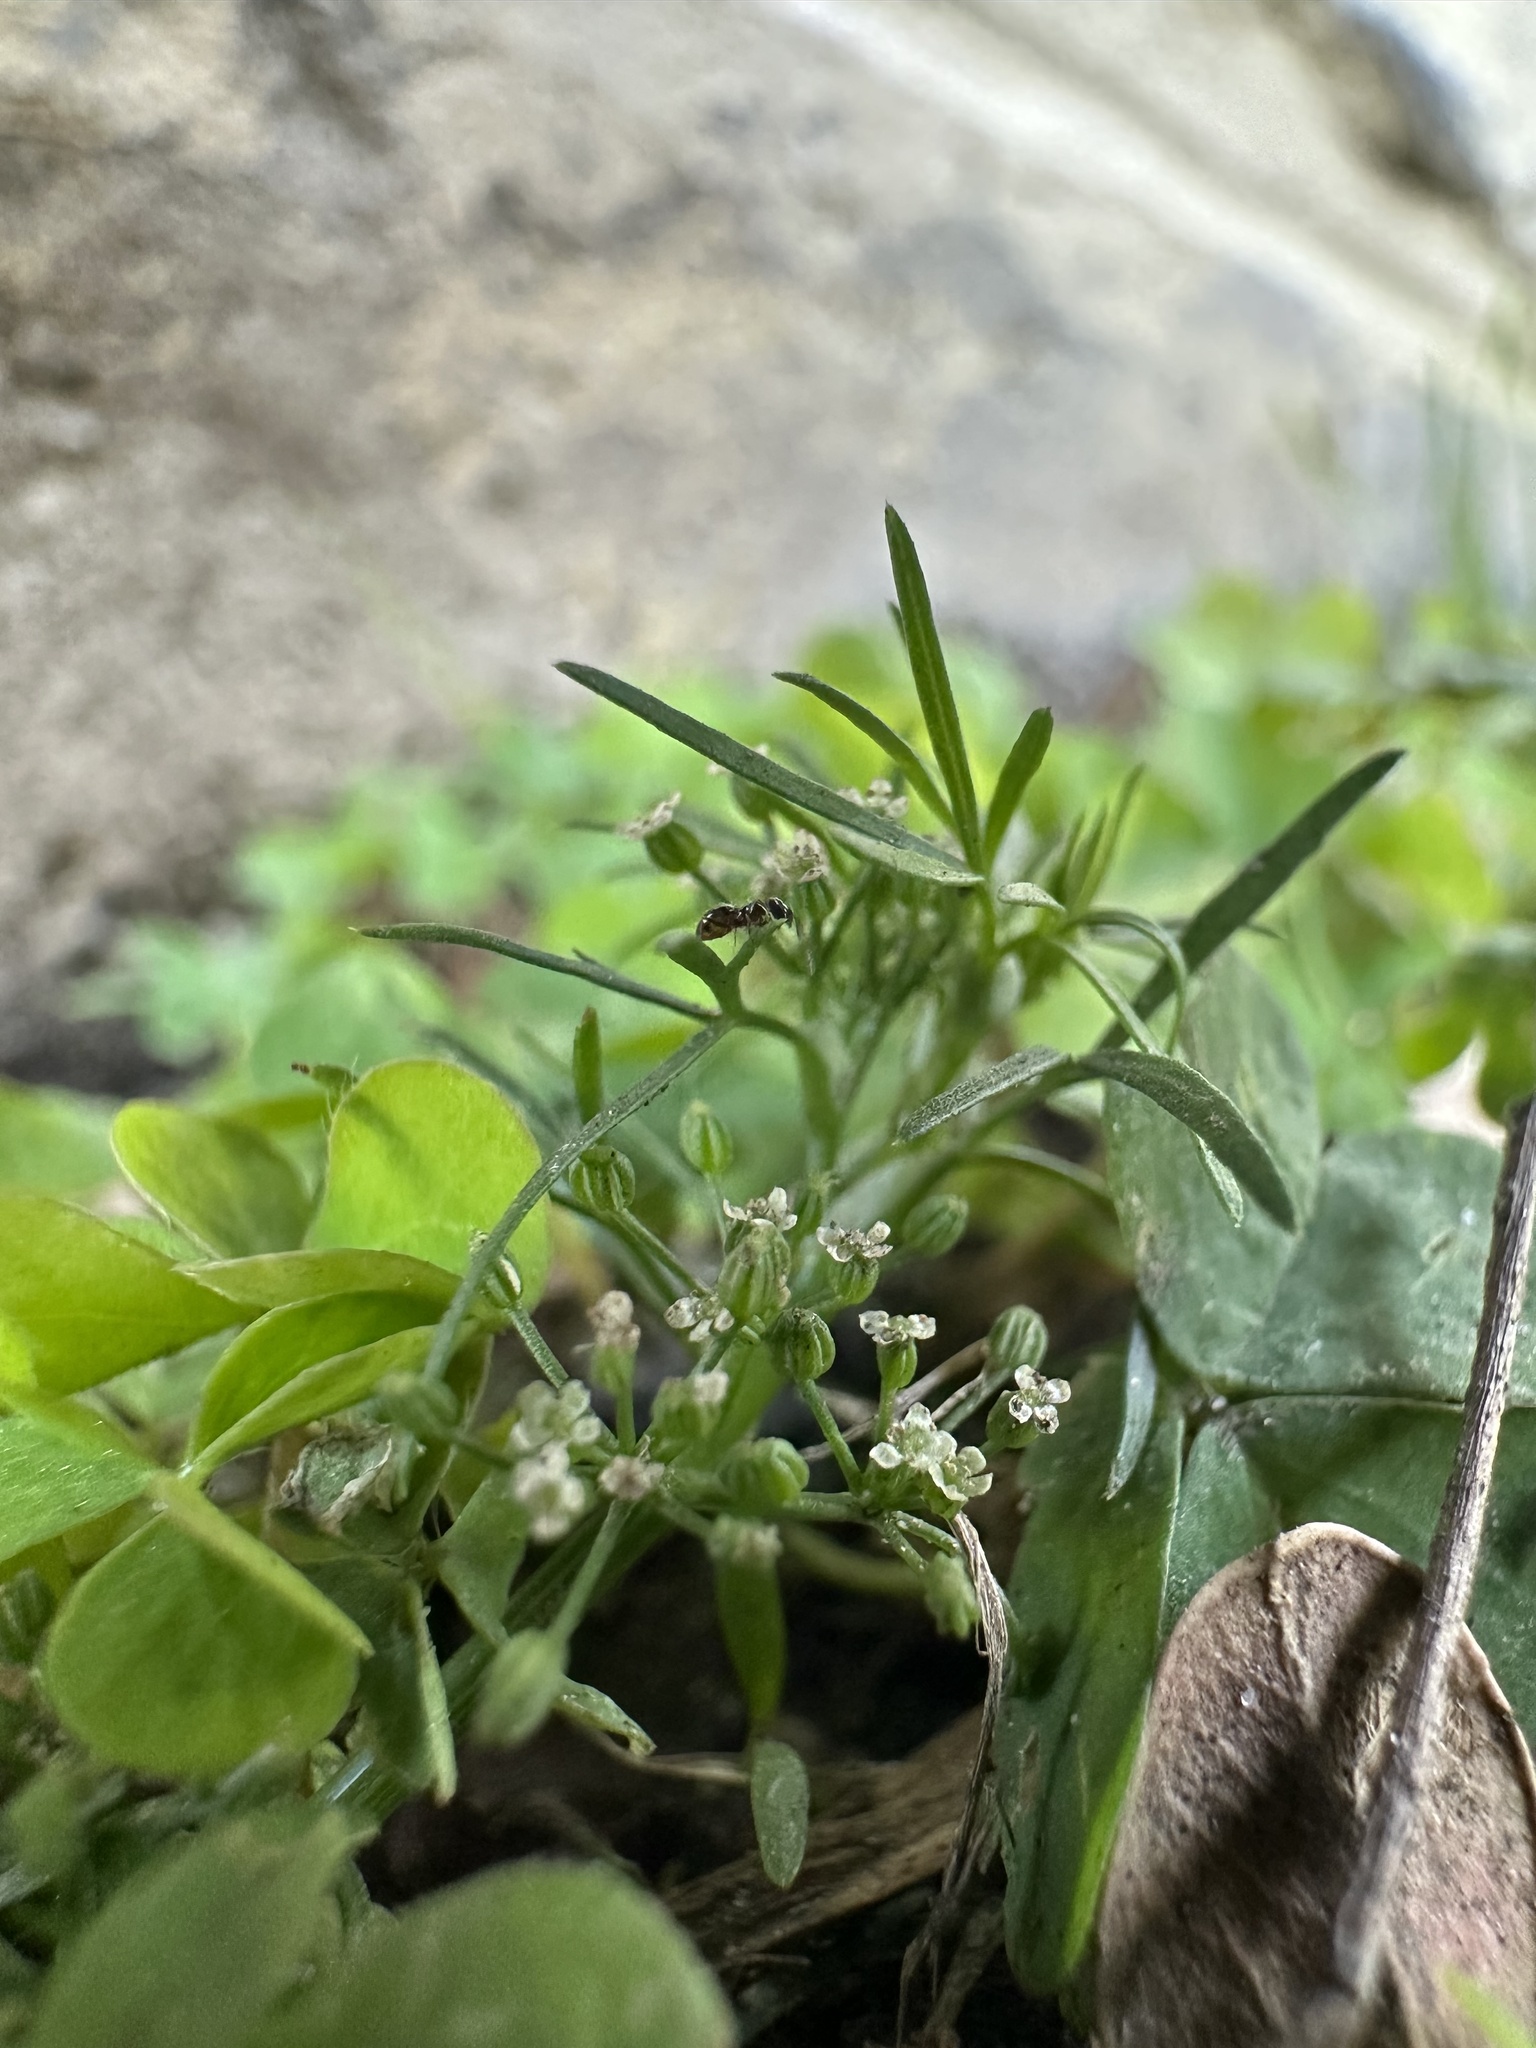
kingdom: Plantae
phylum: Tracheophyta
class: Magnoliopsida
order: Apiales
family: Apiaceae
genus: Cyclospermum
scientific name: Cyclospermum leptophyllum
